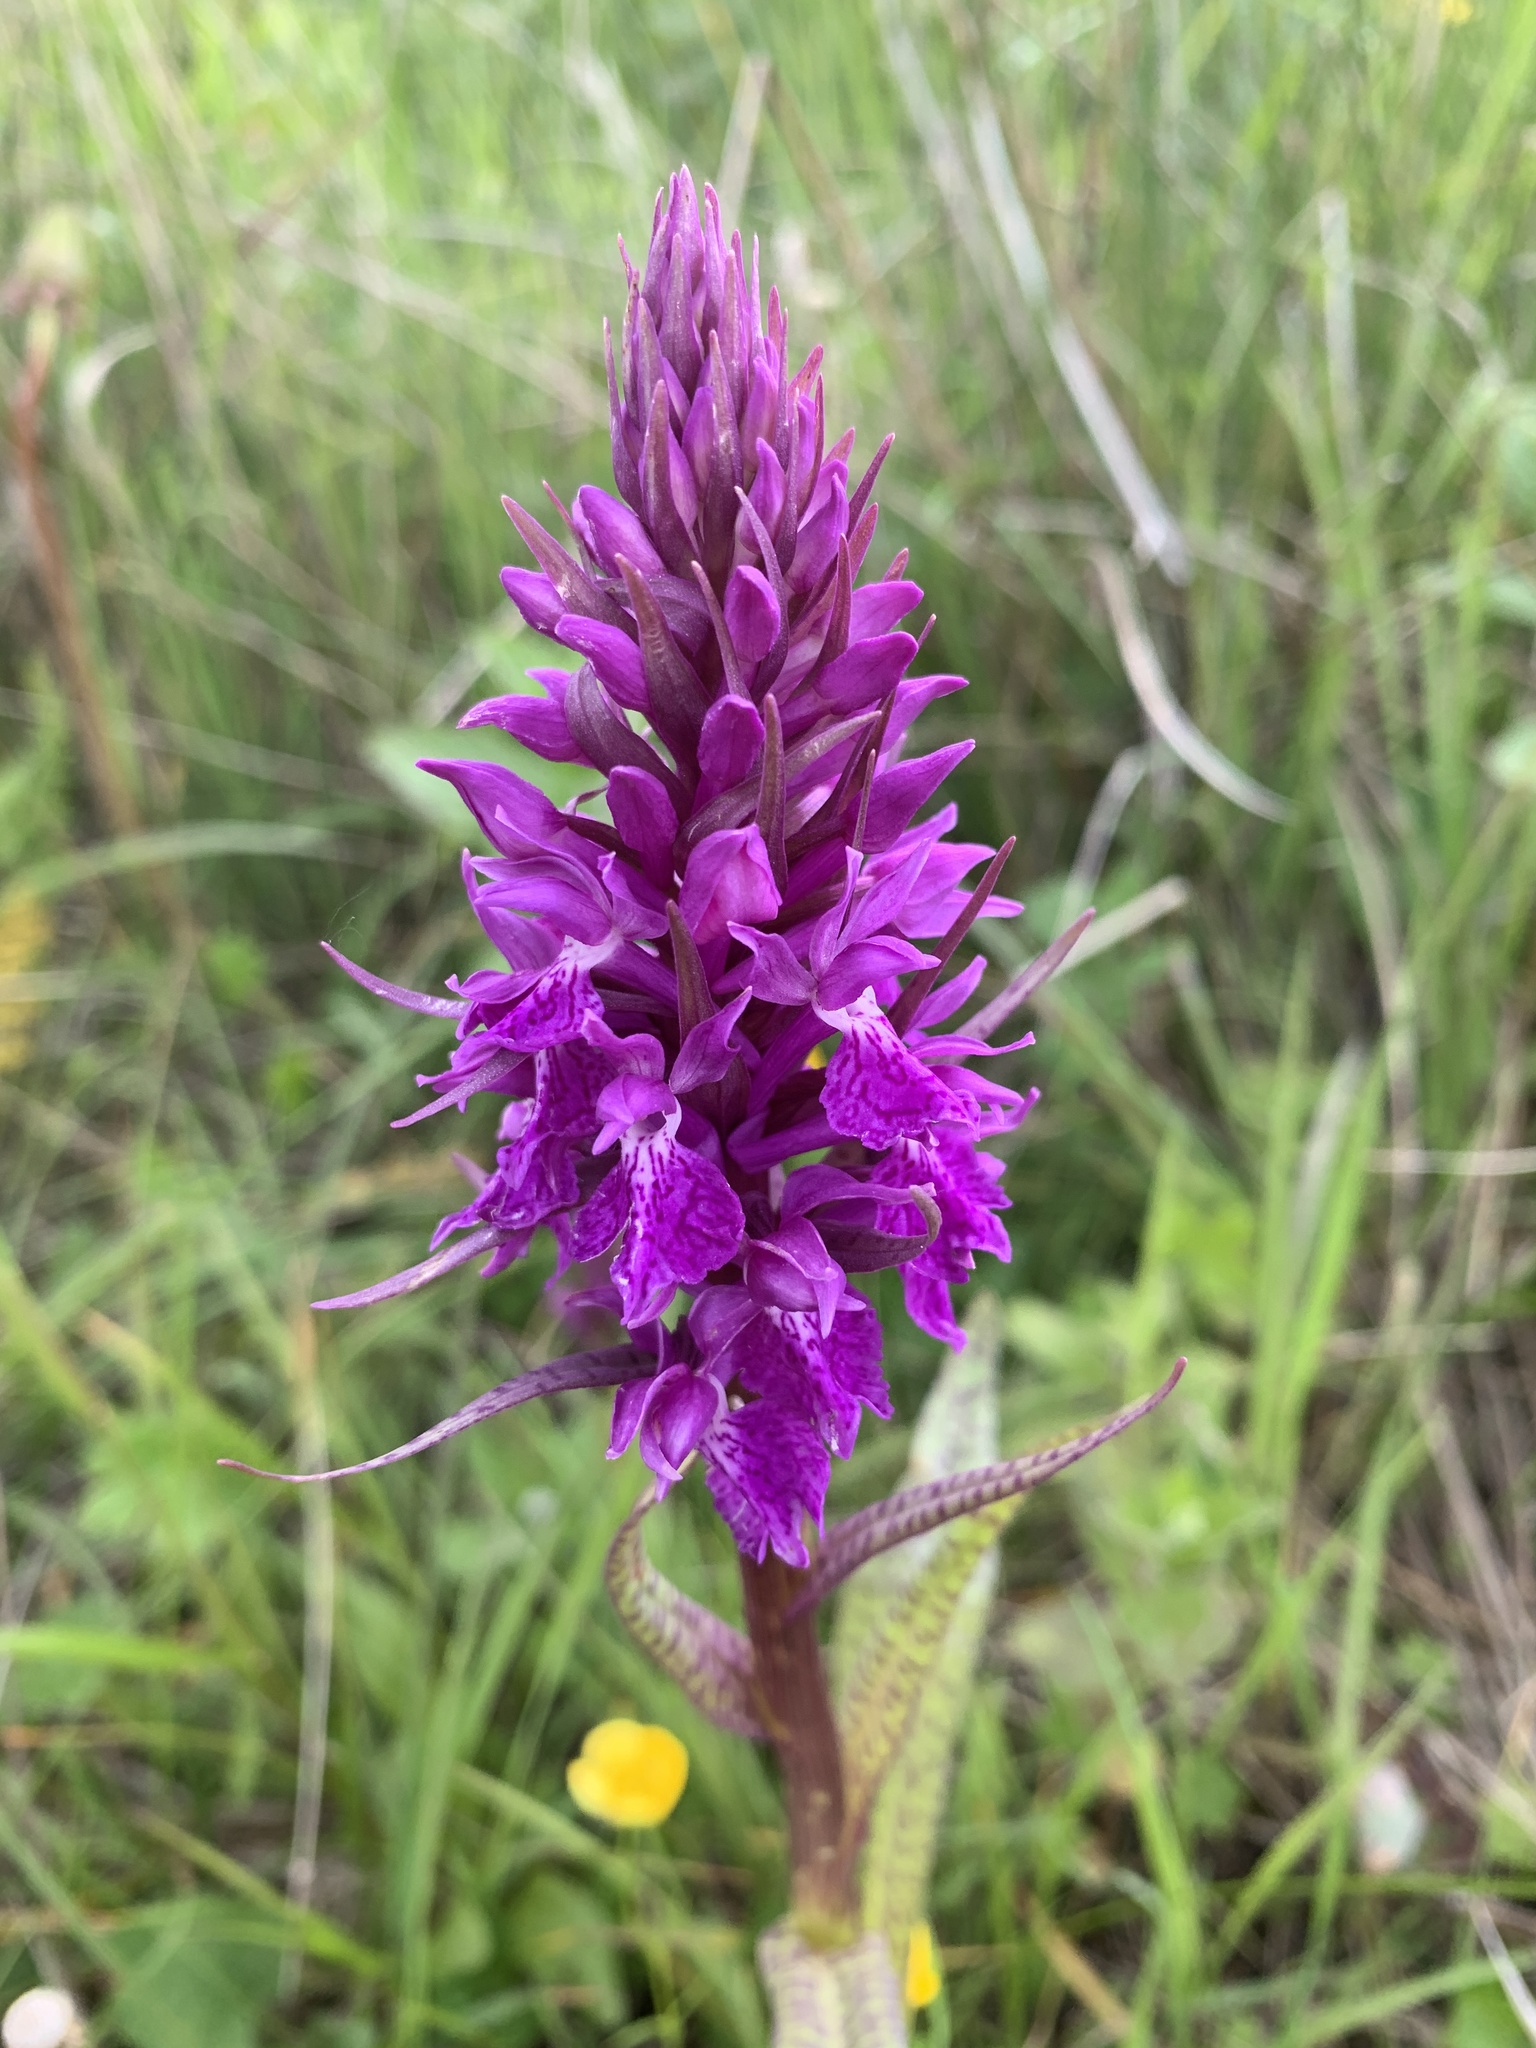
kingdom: Plantae
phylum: Tracheophyta
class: Liliopsida
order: Asparagales
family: Orchidaceae
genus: Dactylorhiza
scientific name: Dactylorhiza euxina
